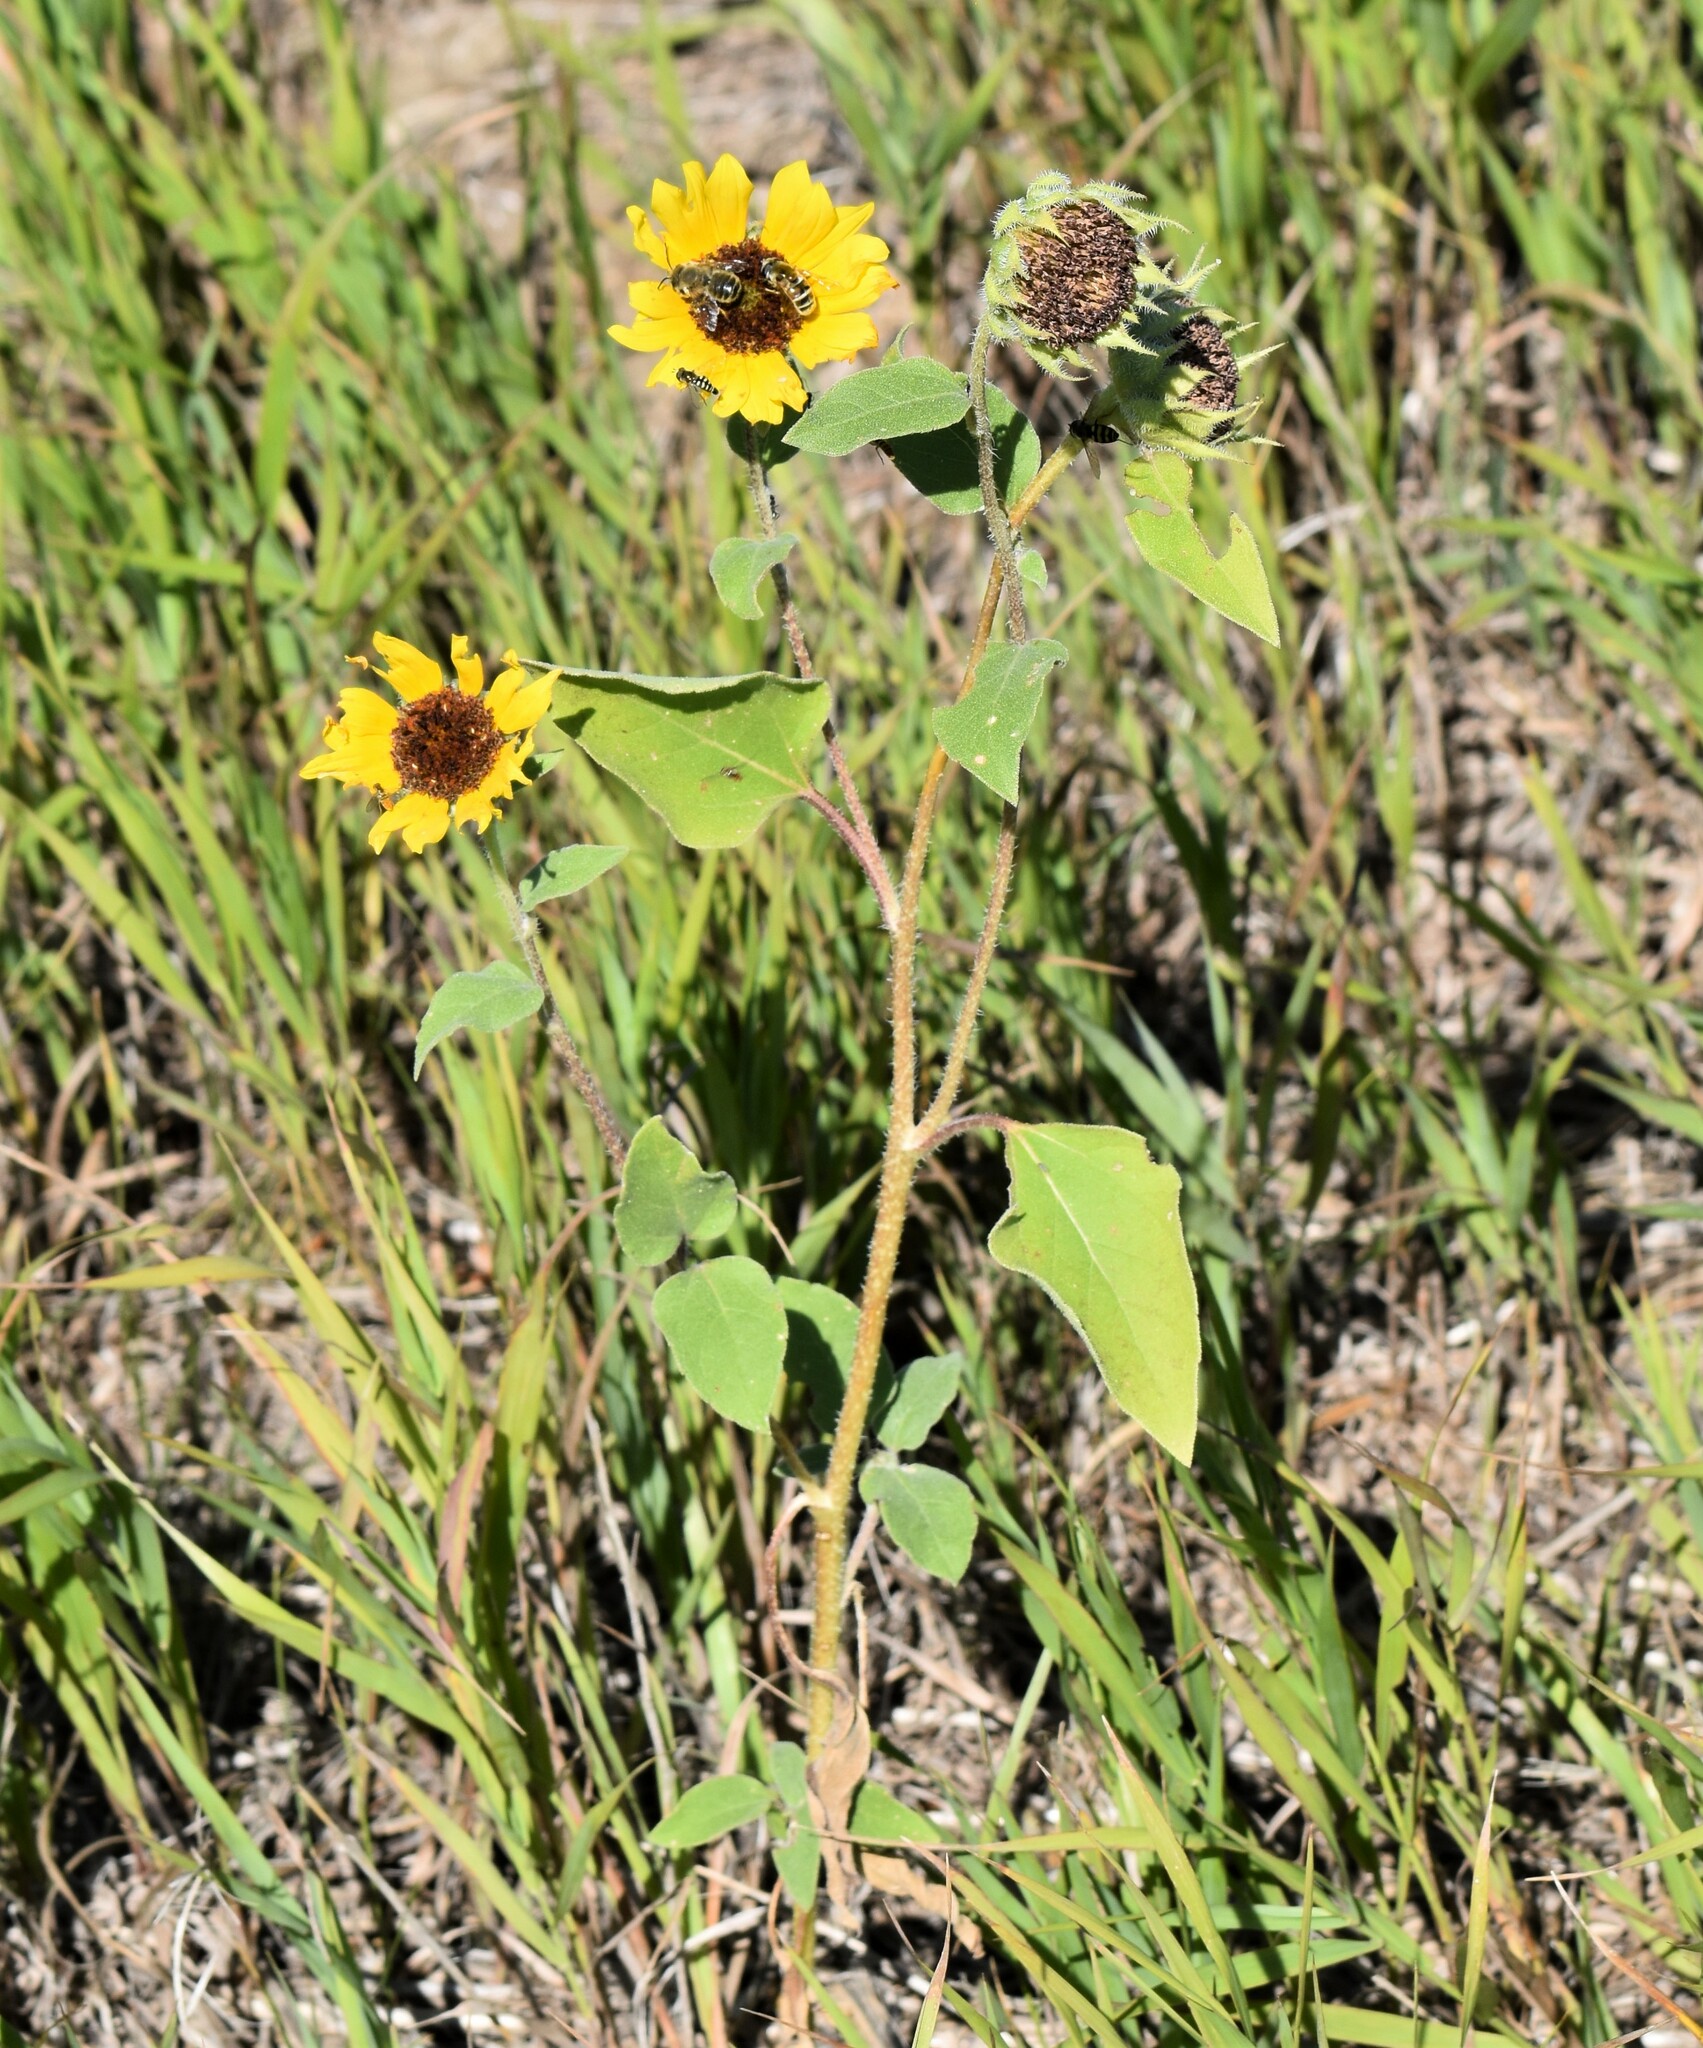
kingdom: Plantae
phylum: Tracheophyta
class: Magnoliopsida
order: Asterales
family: Asteraceae
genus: Helianthus
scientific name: Helianthus annuus
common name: Sunflower
